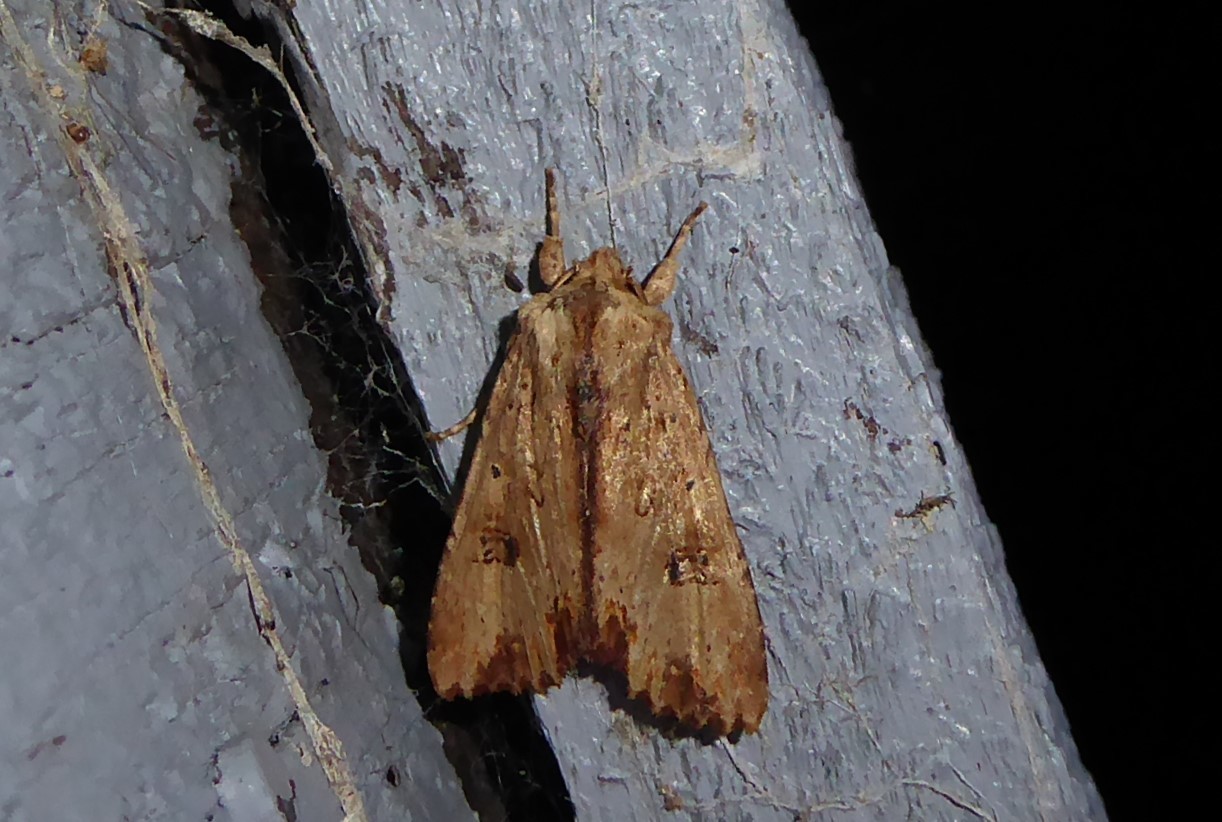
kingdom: Animalia
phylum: Arthropoda
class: Insecta
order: Lepidoptera
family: Noctuidae
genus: Ichneutica
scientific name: Ichneutica
